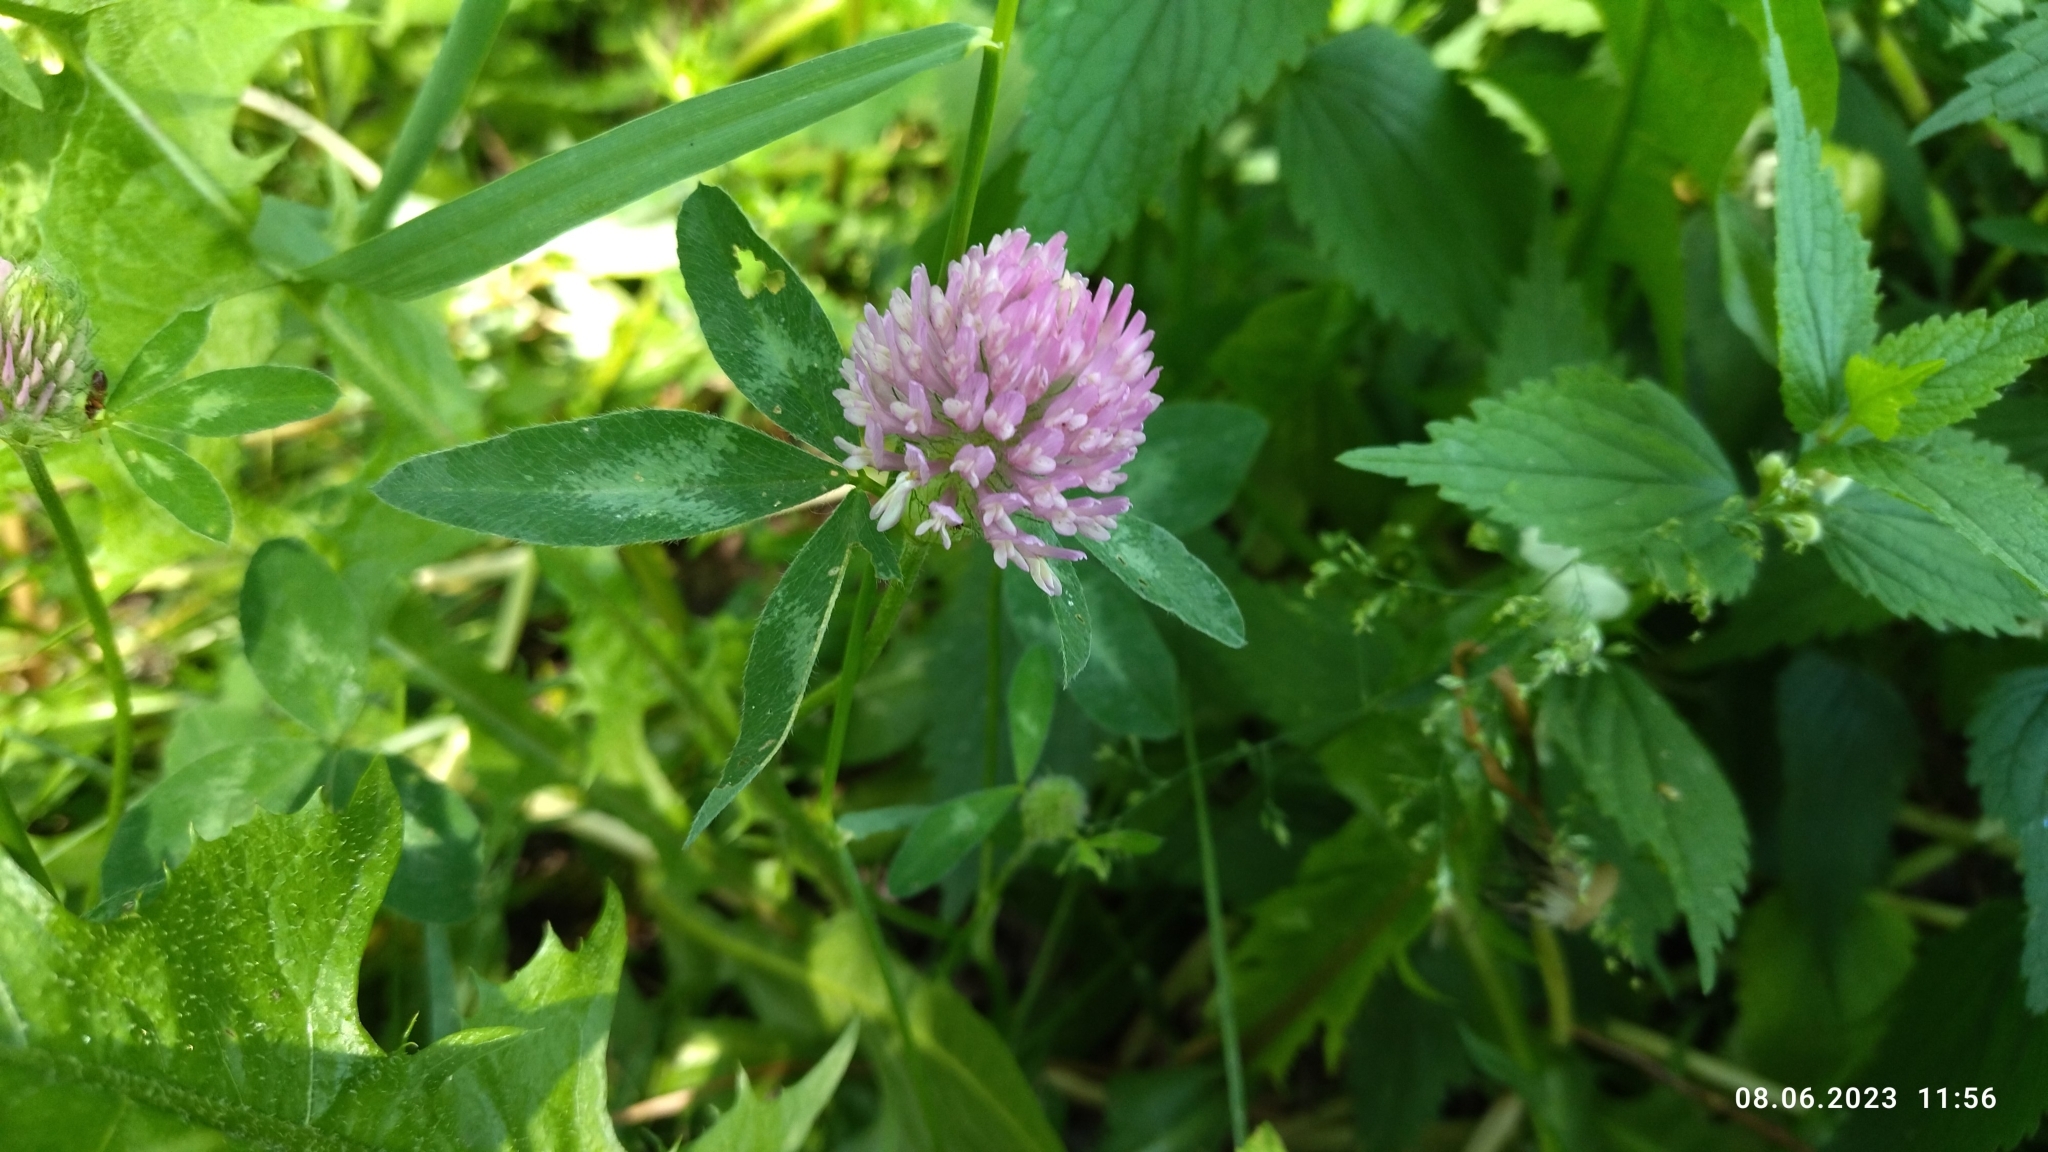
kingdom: Plantae
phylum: Tracheophyta
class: Magnoliopsida
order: Fabales
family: Fabaceae
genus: Trifolium
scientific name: Trifolium pratense
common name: Red clover
